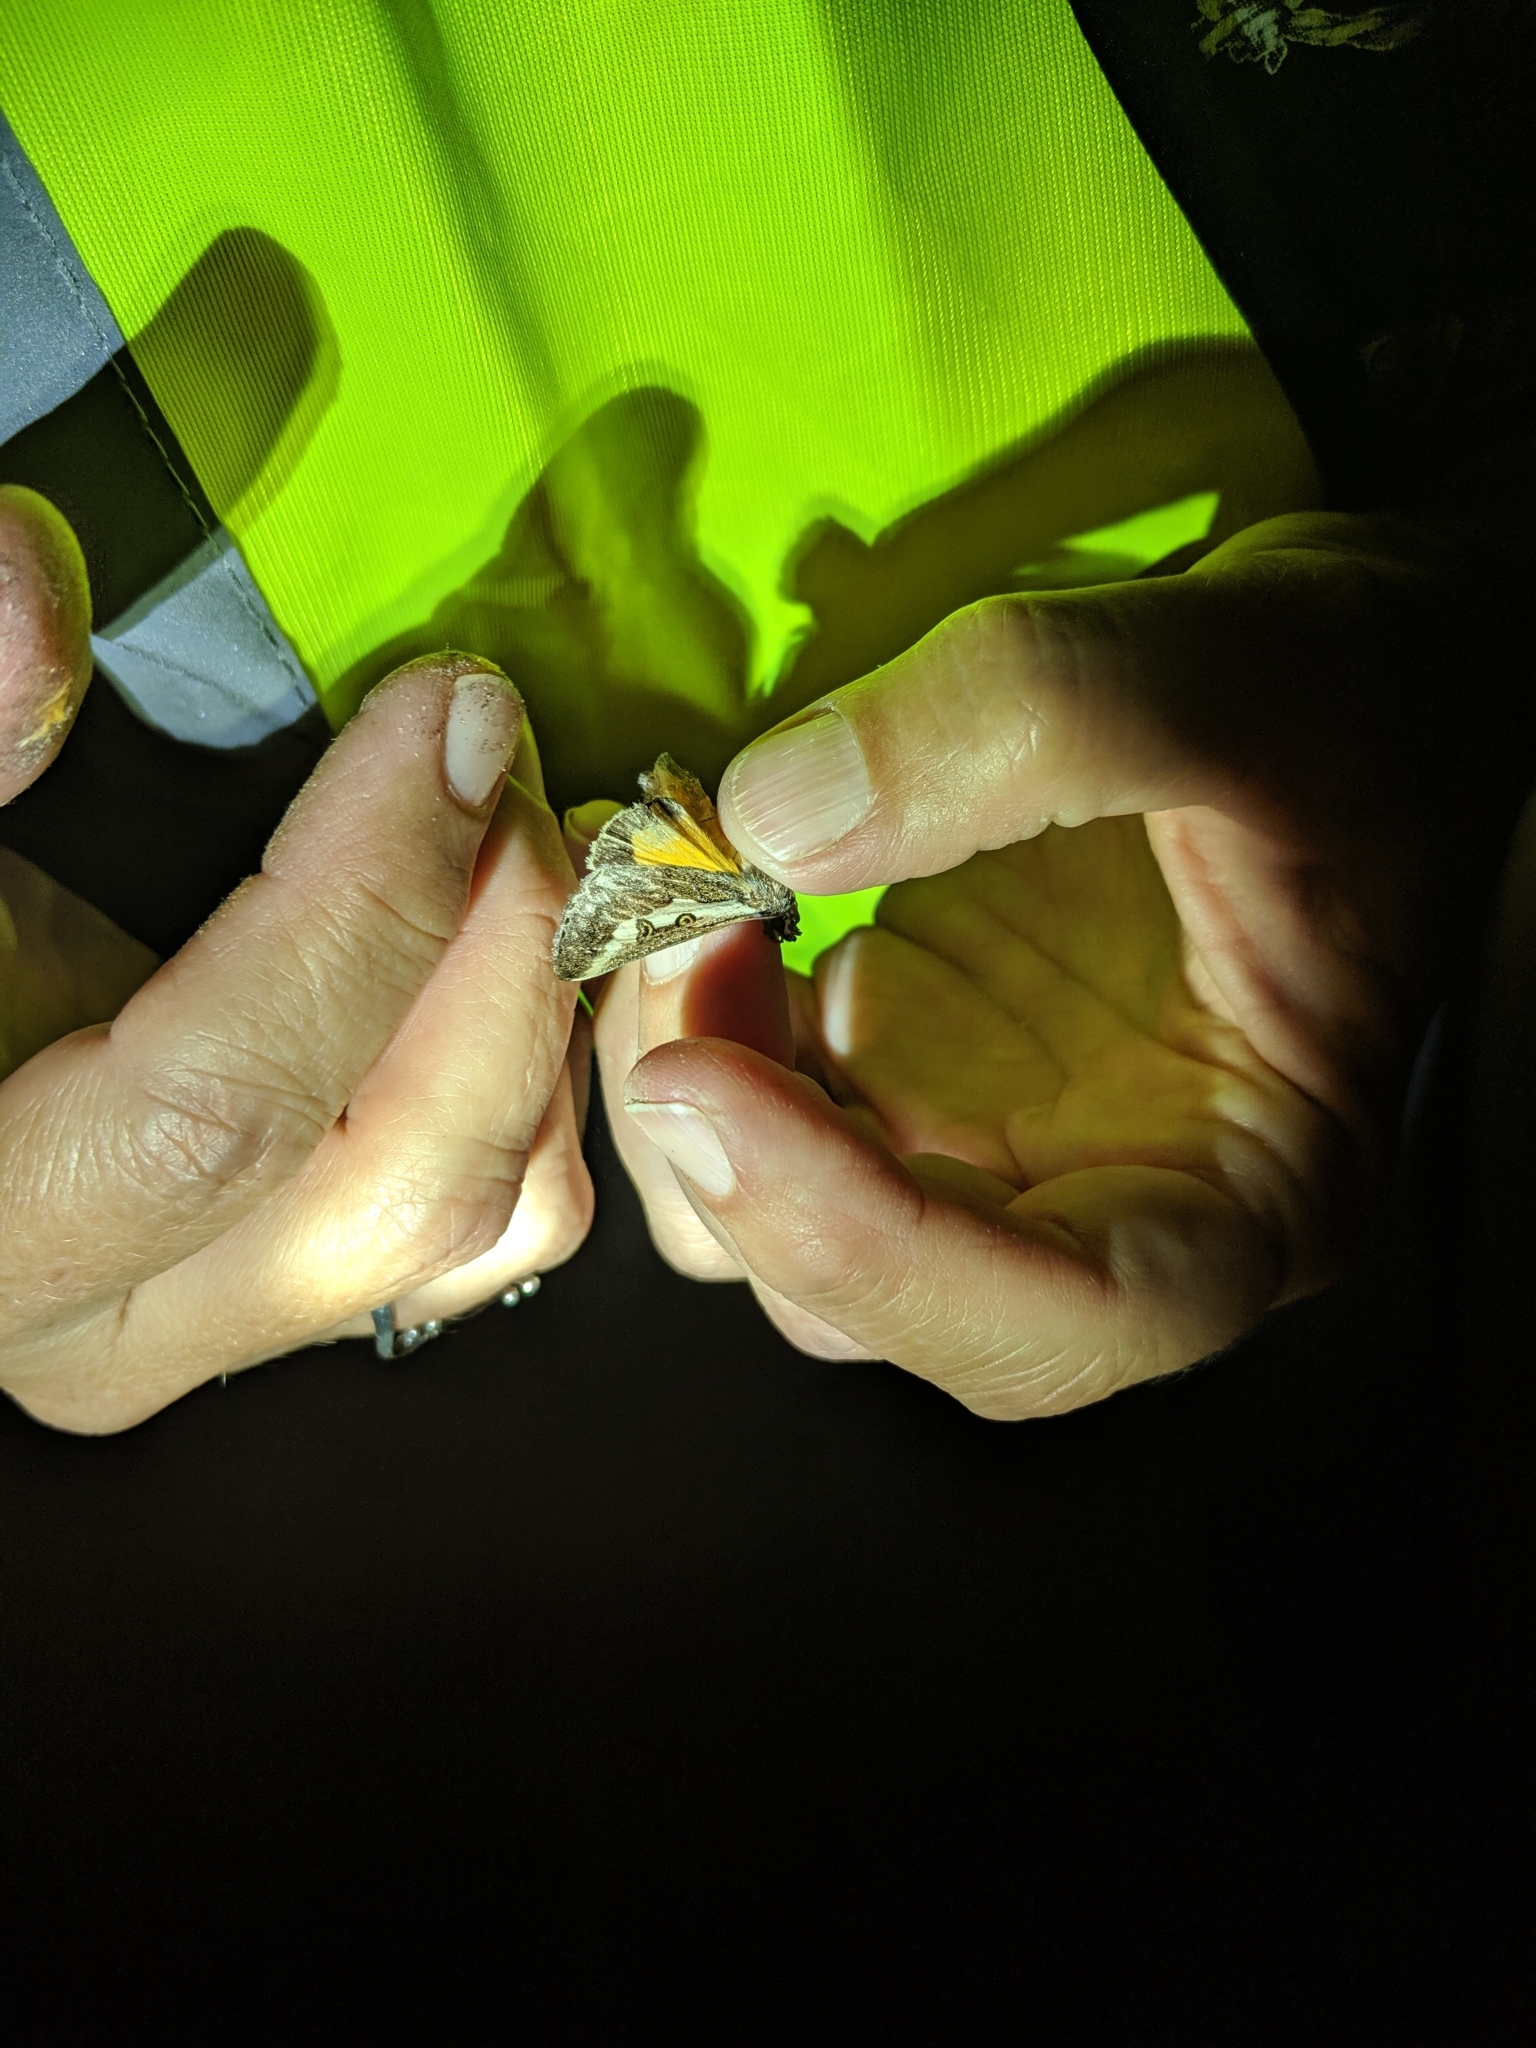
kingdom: Animalia
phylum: Arthropoda
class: Insecta
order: Lepidoptera
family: Noctuidae
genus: Euscirrhopterus
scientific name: Euscirrhopterus gloveri
